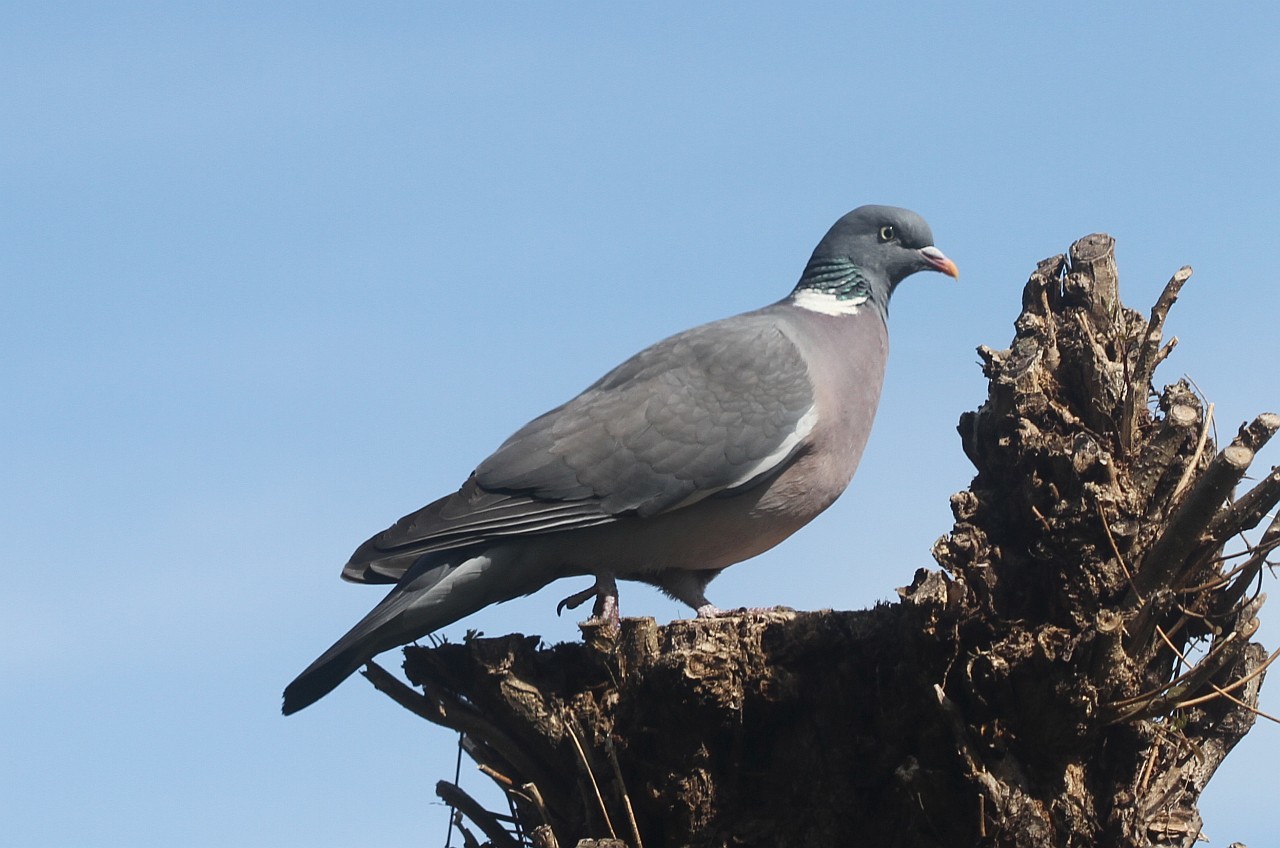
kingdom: Animalia
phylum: Chordata
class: Aves
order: Columbiformes
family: Columbidae
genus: Columba
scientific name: Columba palumbus
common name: Common wood pigeon
